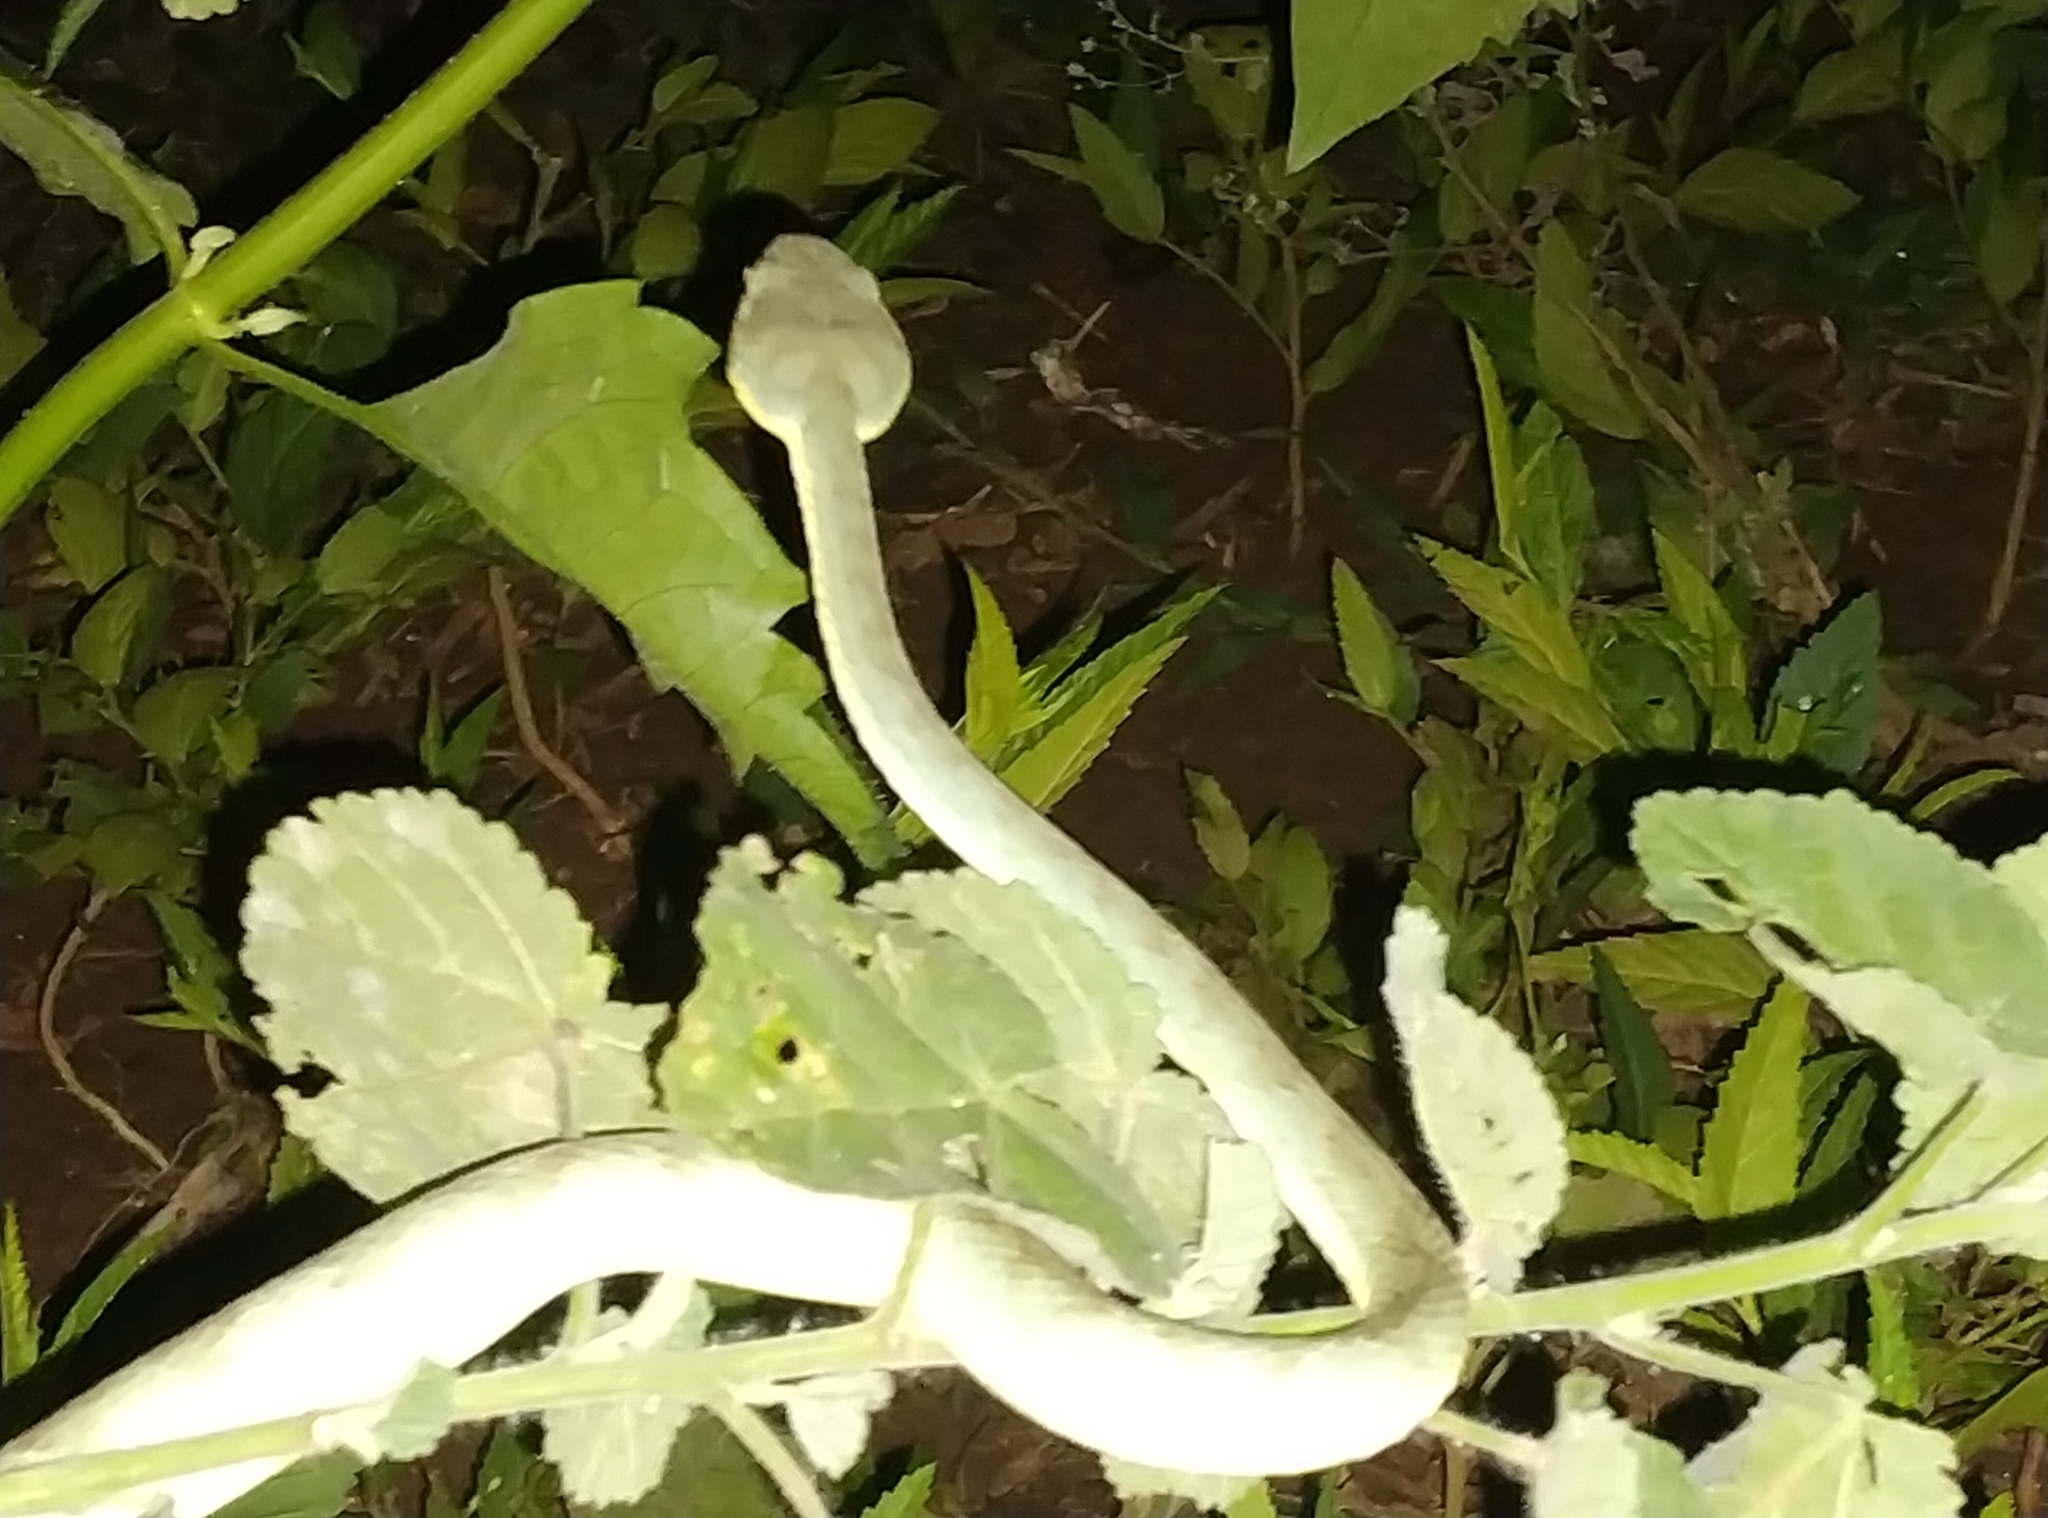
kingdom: Animalia
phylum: Chordata
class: Squamata
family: Viperidae
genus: Craspedocephalus
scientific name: Craspedocephalus gramineus
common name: Common bamboo viper
